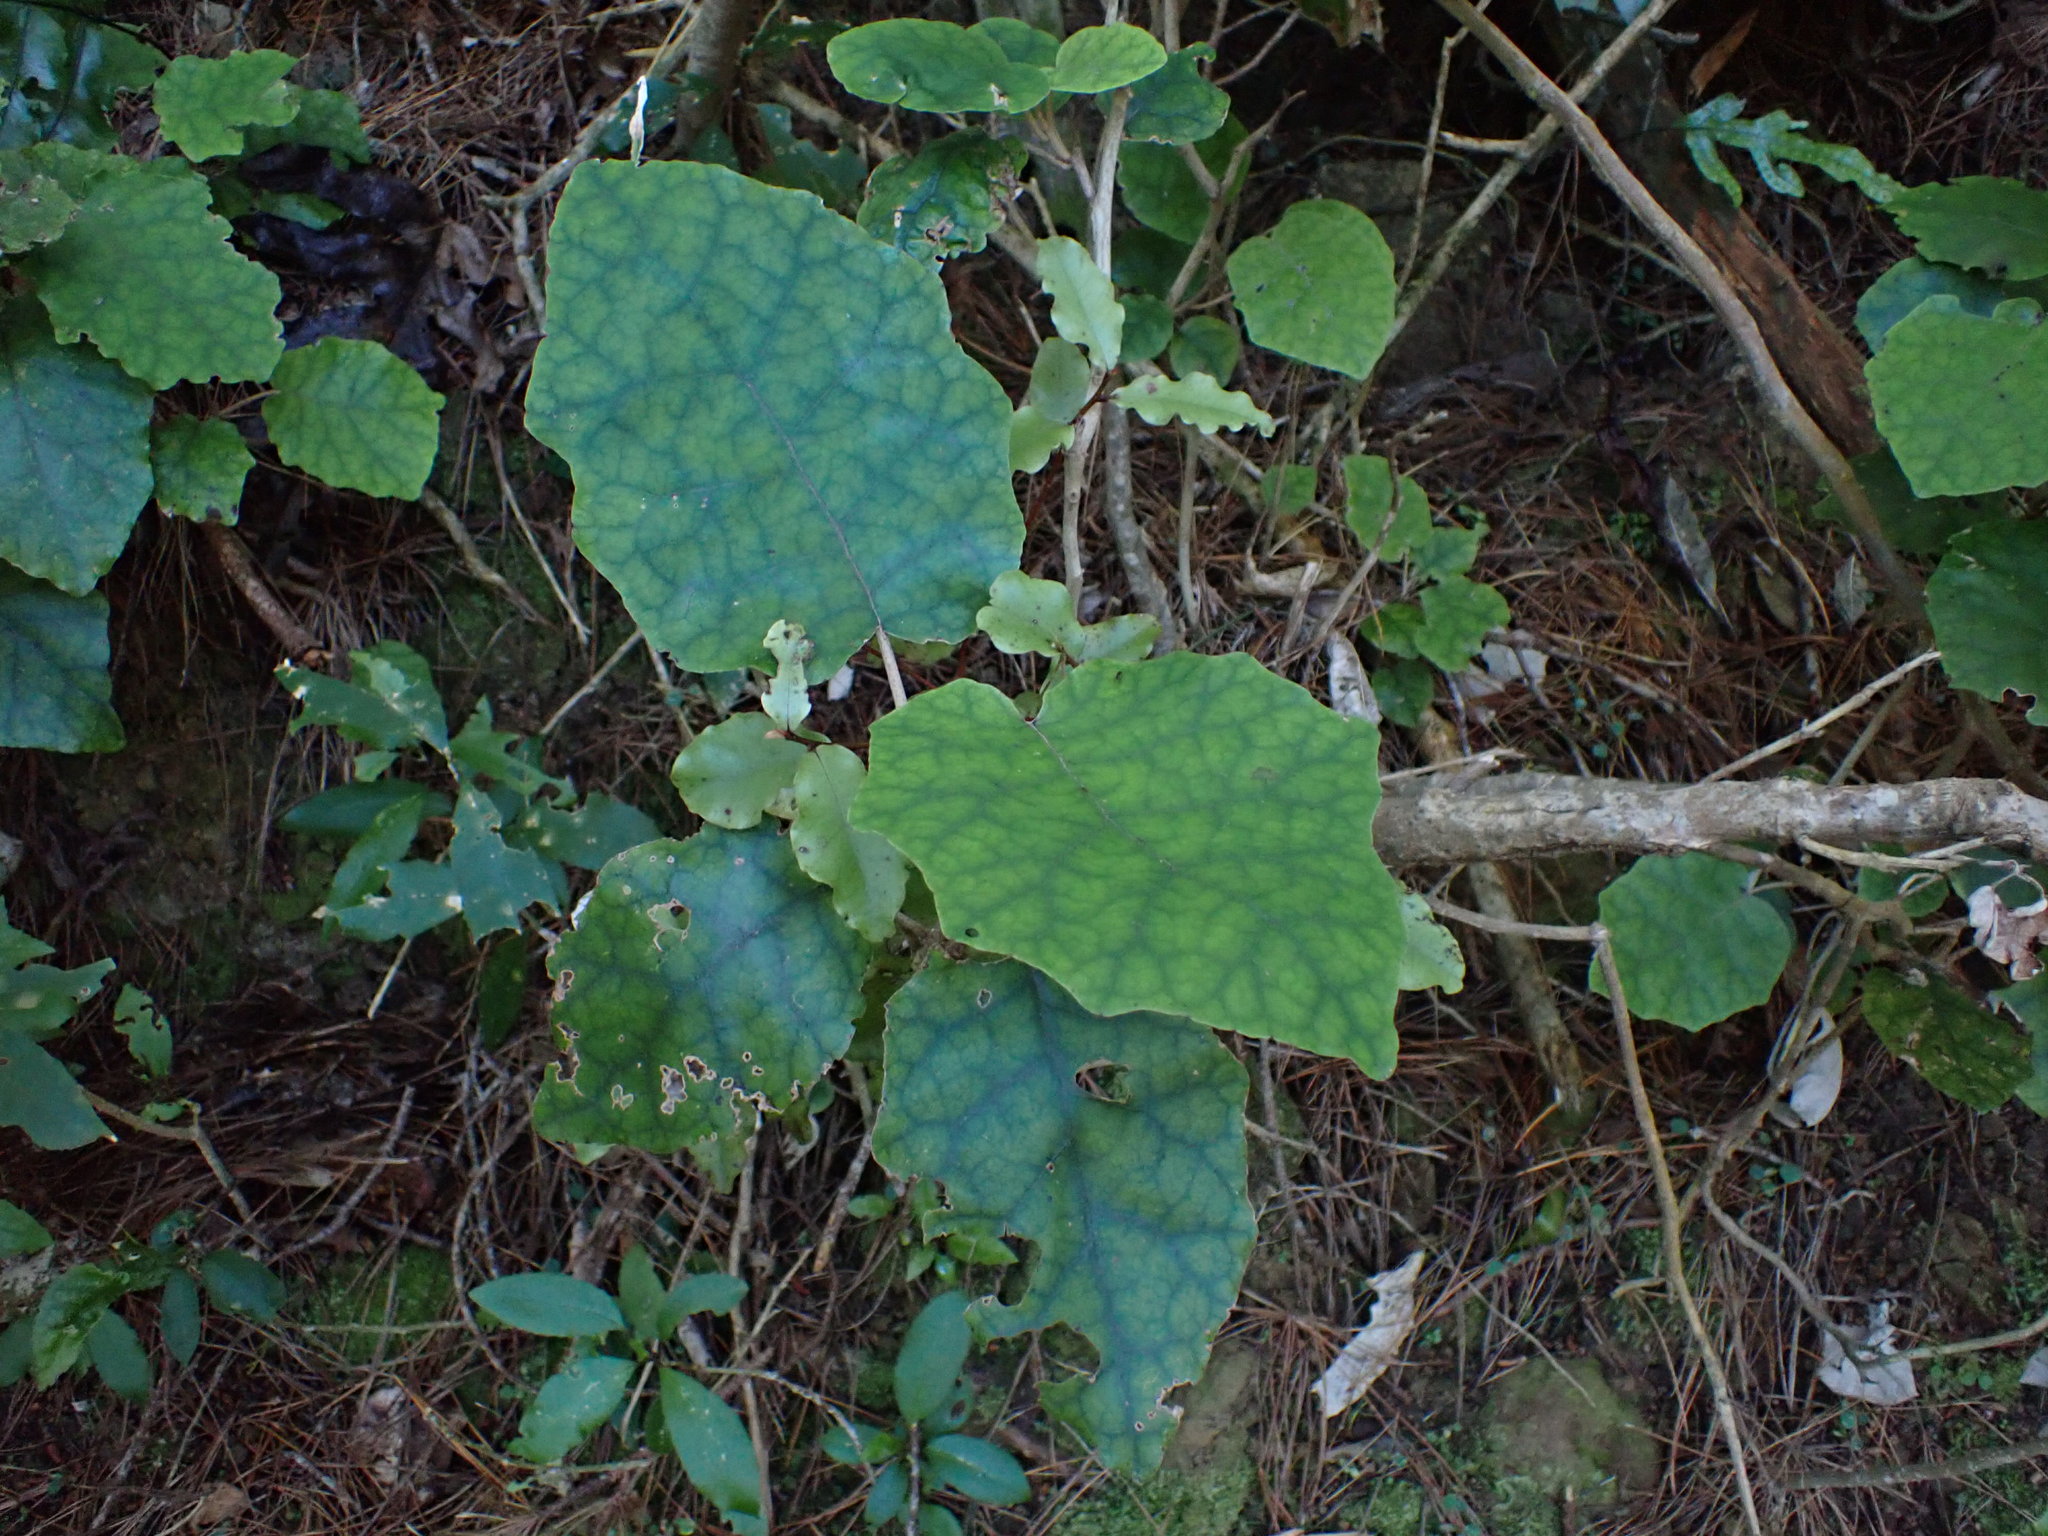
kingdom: Plantae
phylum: Tracheophyta
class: Magnoliopsida
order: Asterales
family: Asteraceae
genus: Brachyglottis
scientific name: Brachyglottis repanda
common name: Hedge ragwort
